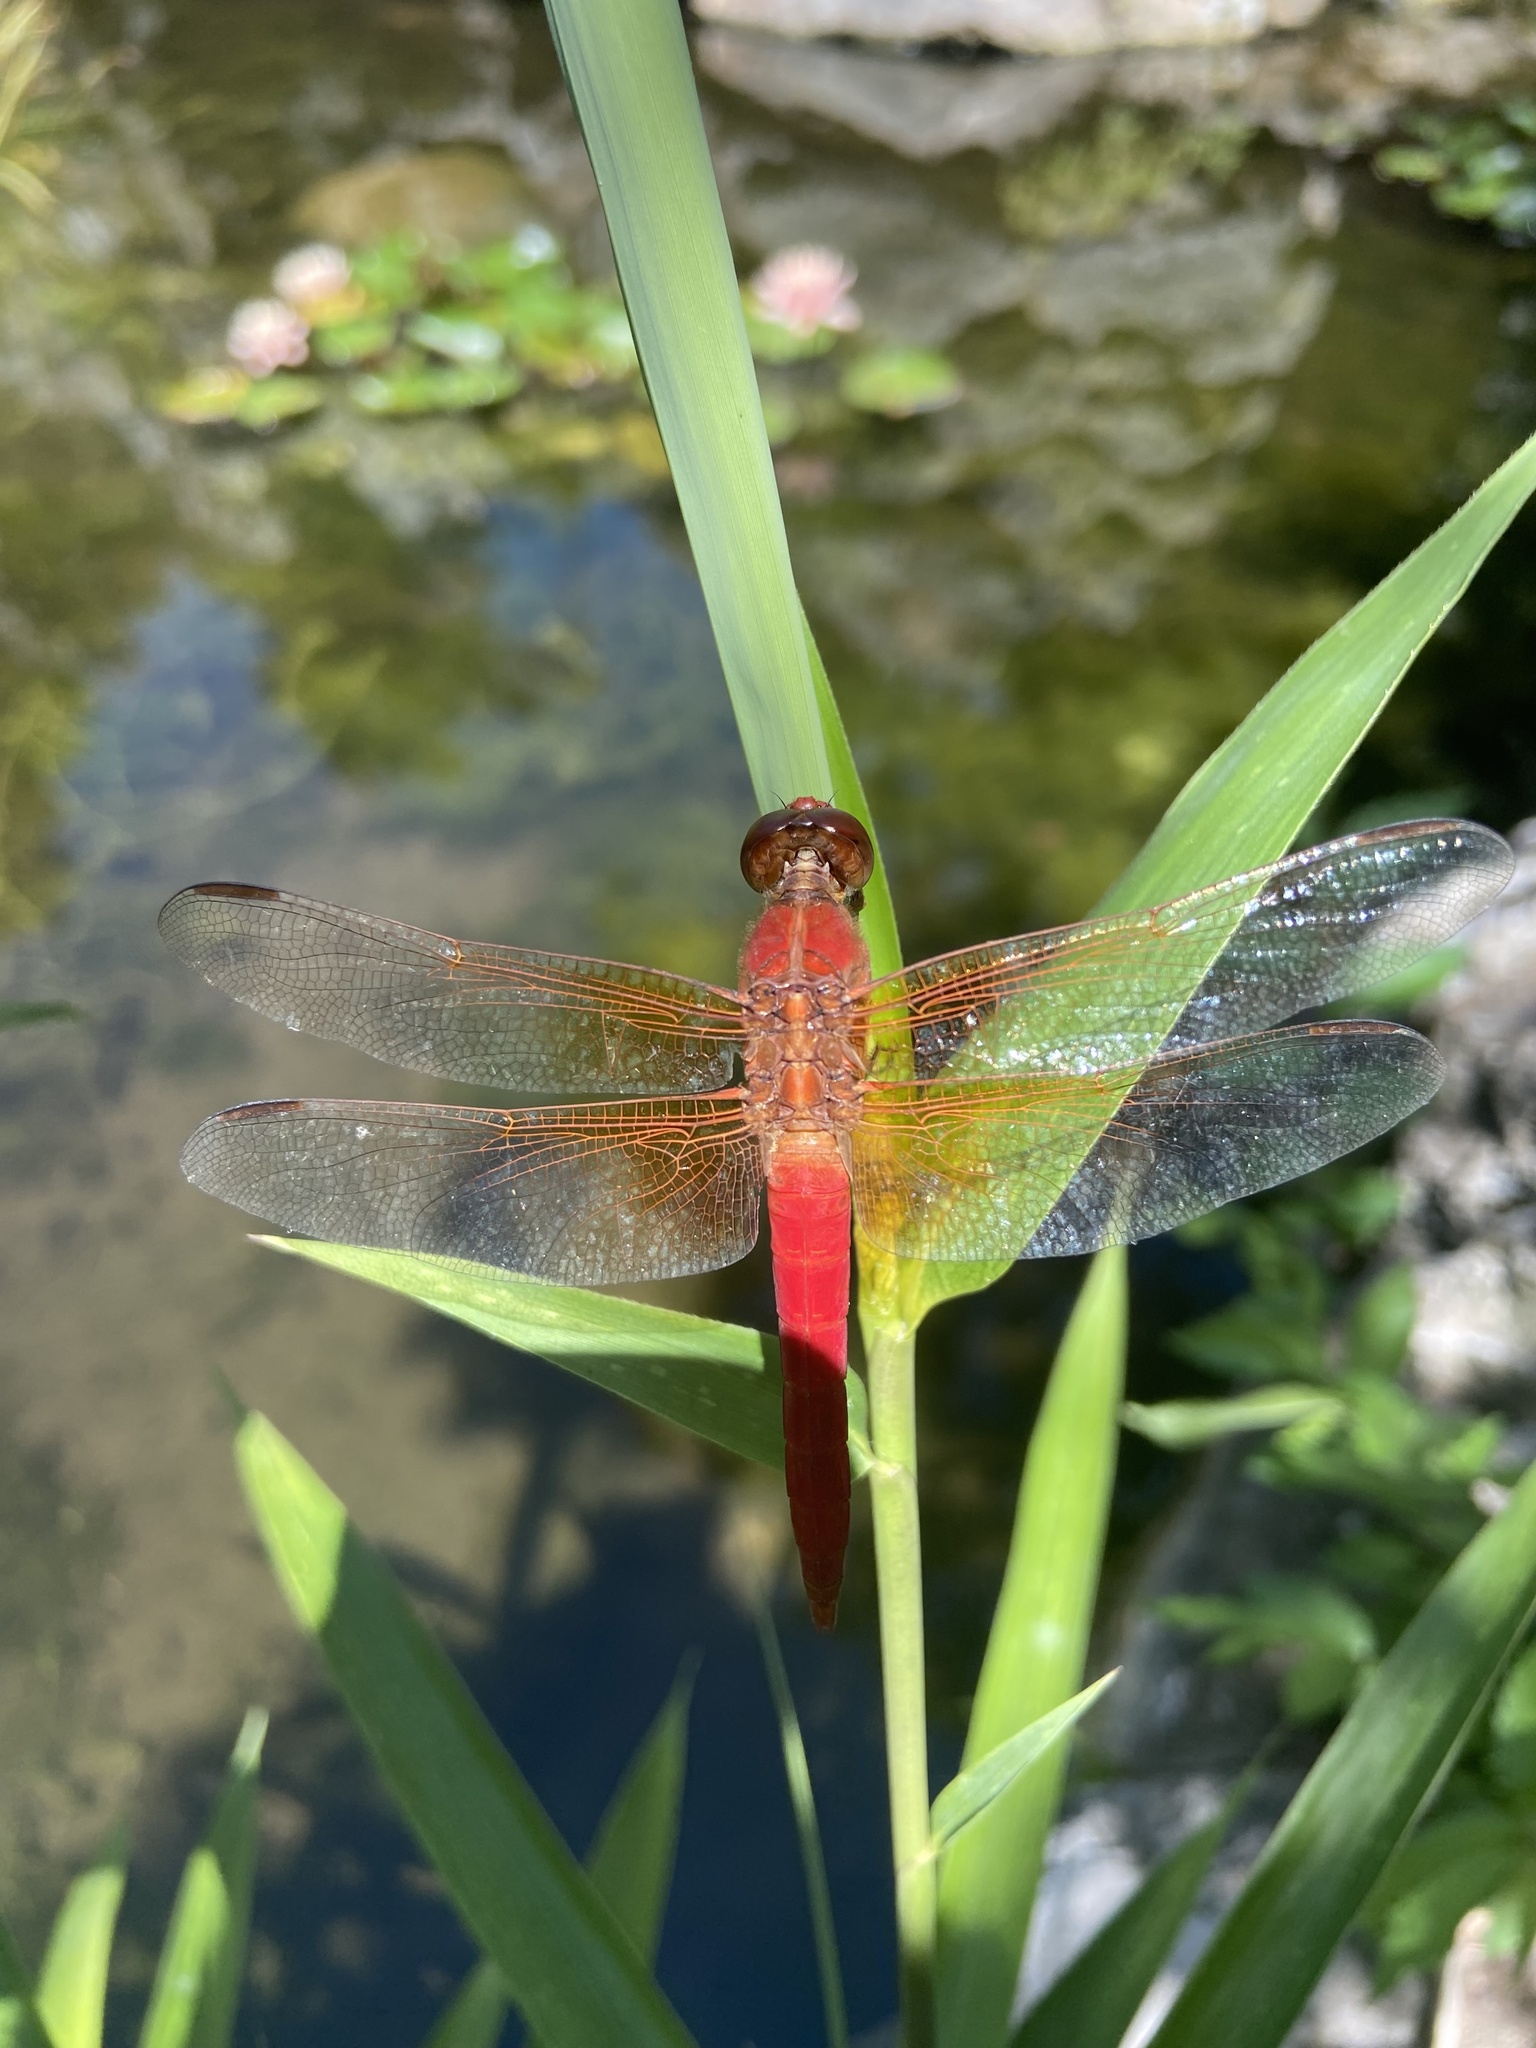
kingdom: Animalia
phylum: Arthropoda
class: Insecta
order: Odonata
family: Libellulidae
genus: Libellula
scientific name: Libellula croceipennis
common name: Neon skimmer
